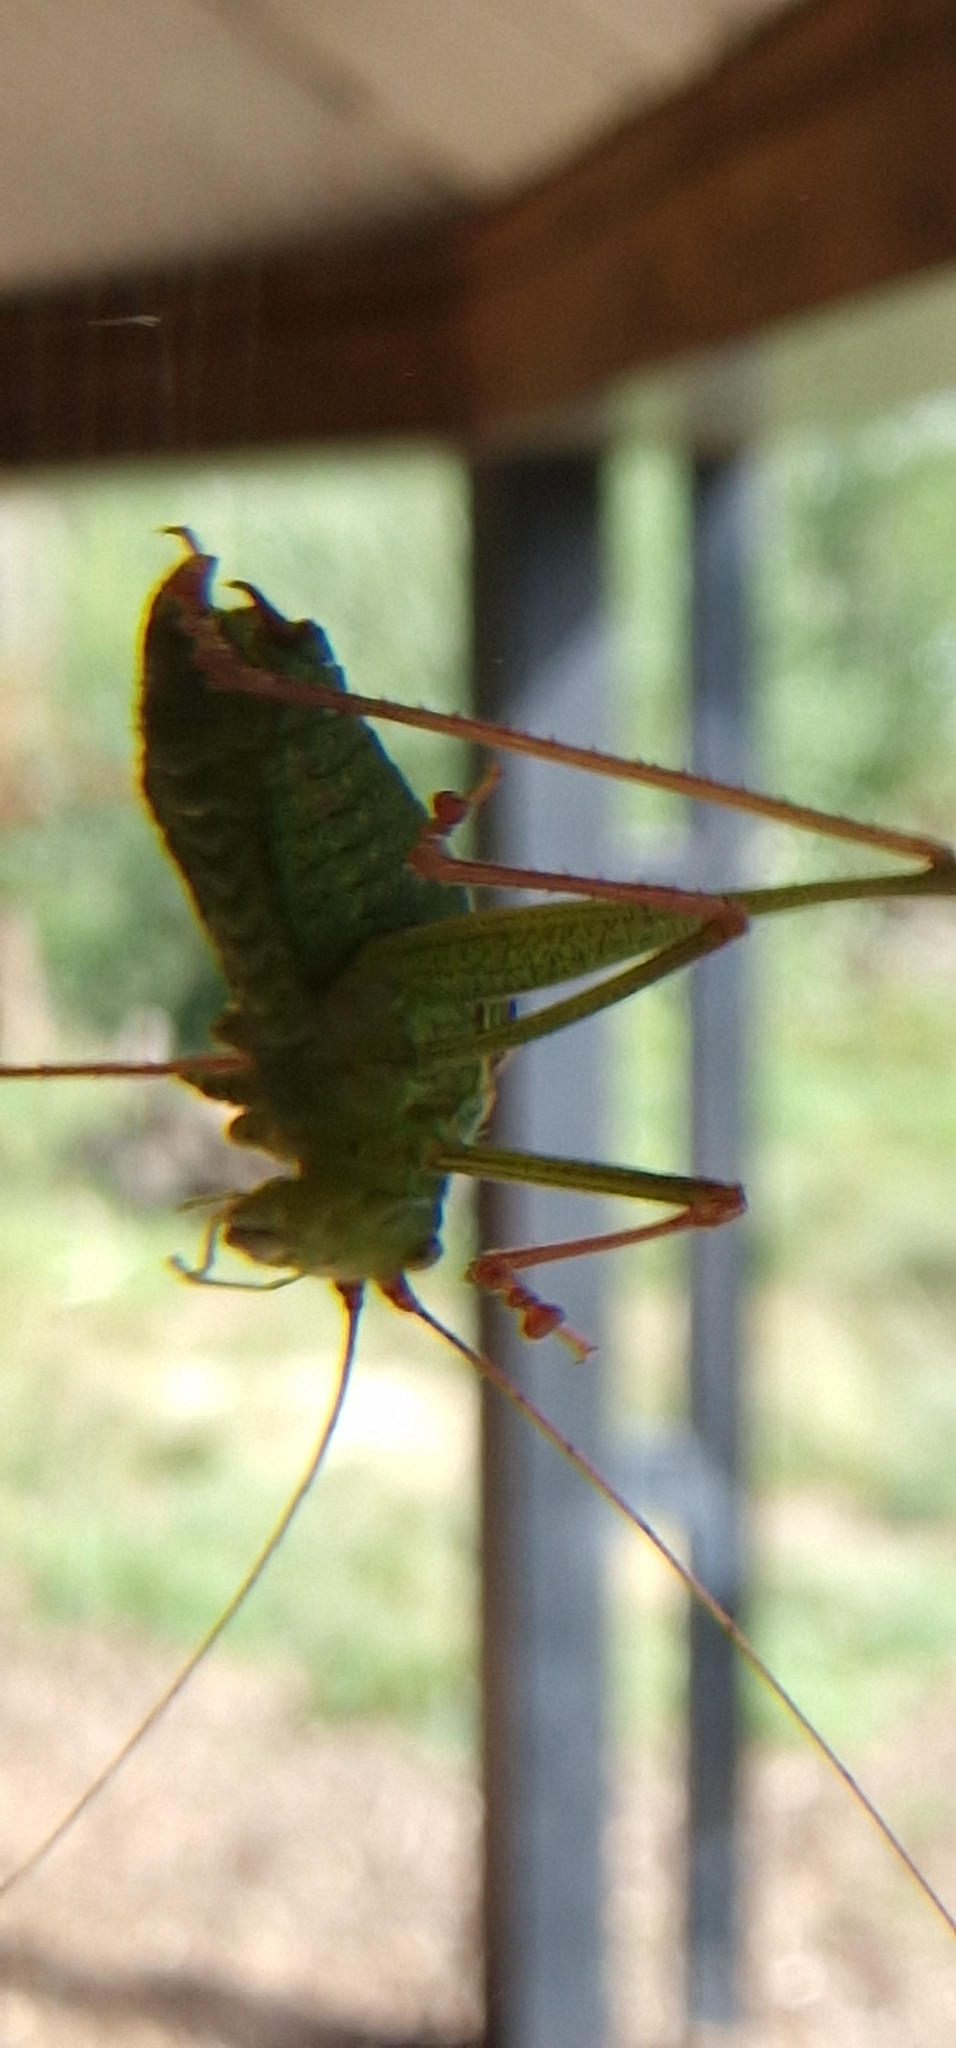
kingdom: Animalia
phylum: Arthropoda
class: Insecta
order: Orthoptera
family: Tettigoniidae
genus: Leptophyes
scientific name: Leptophyes punctatissima
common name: Speckled bush-cricket
